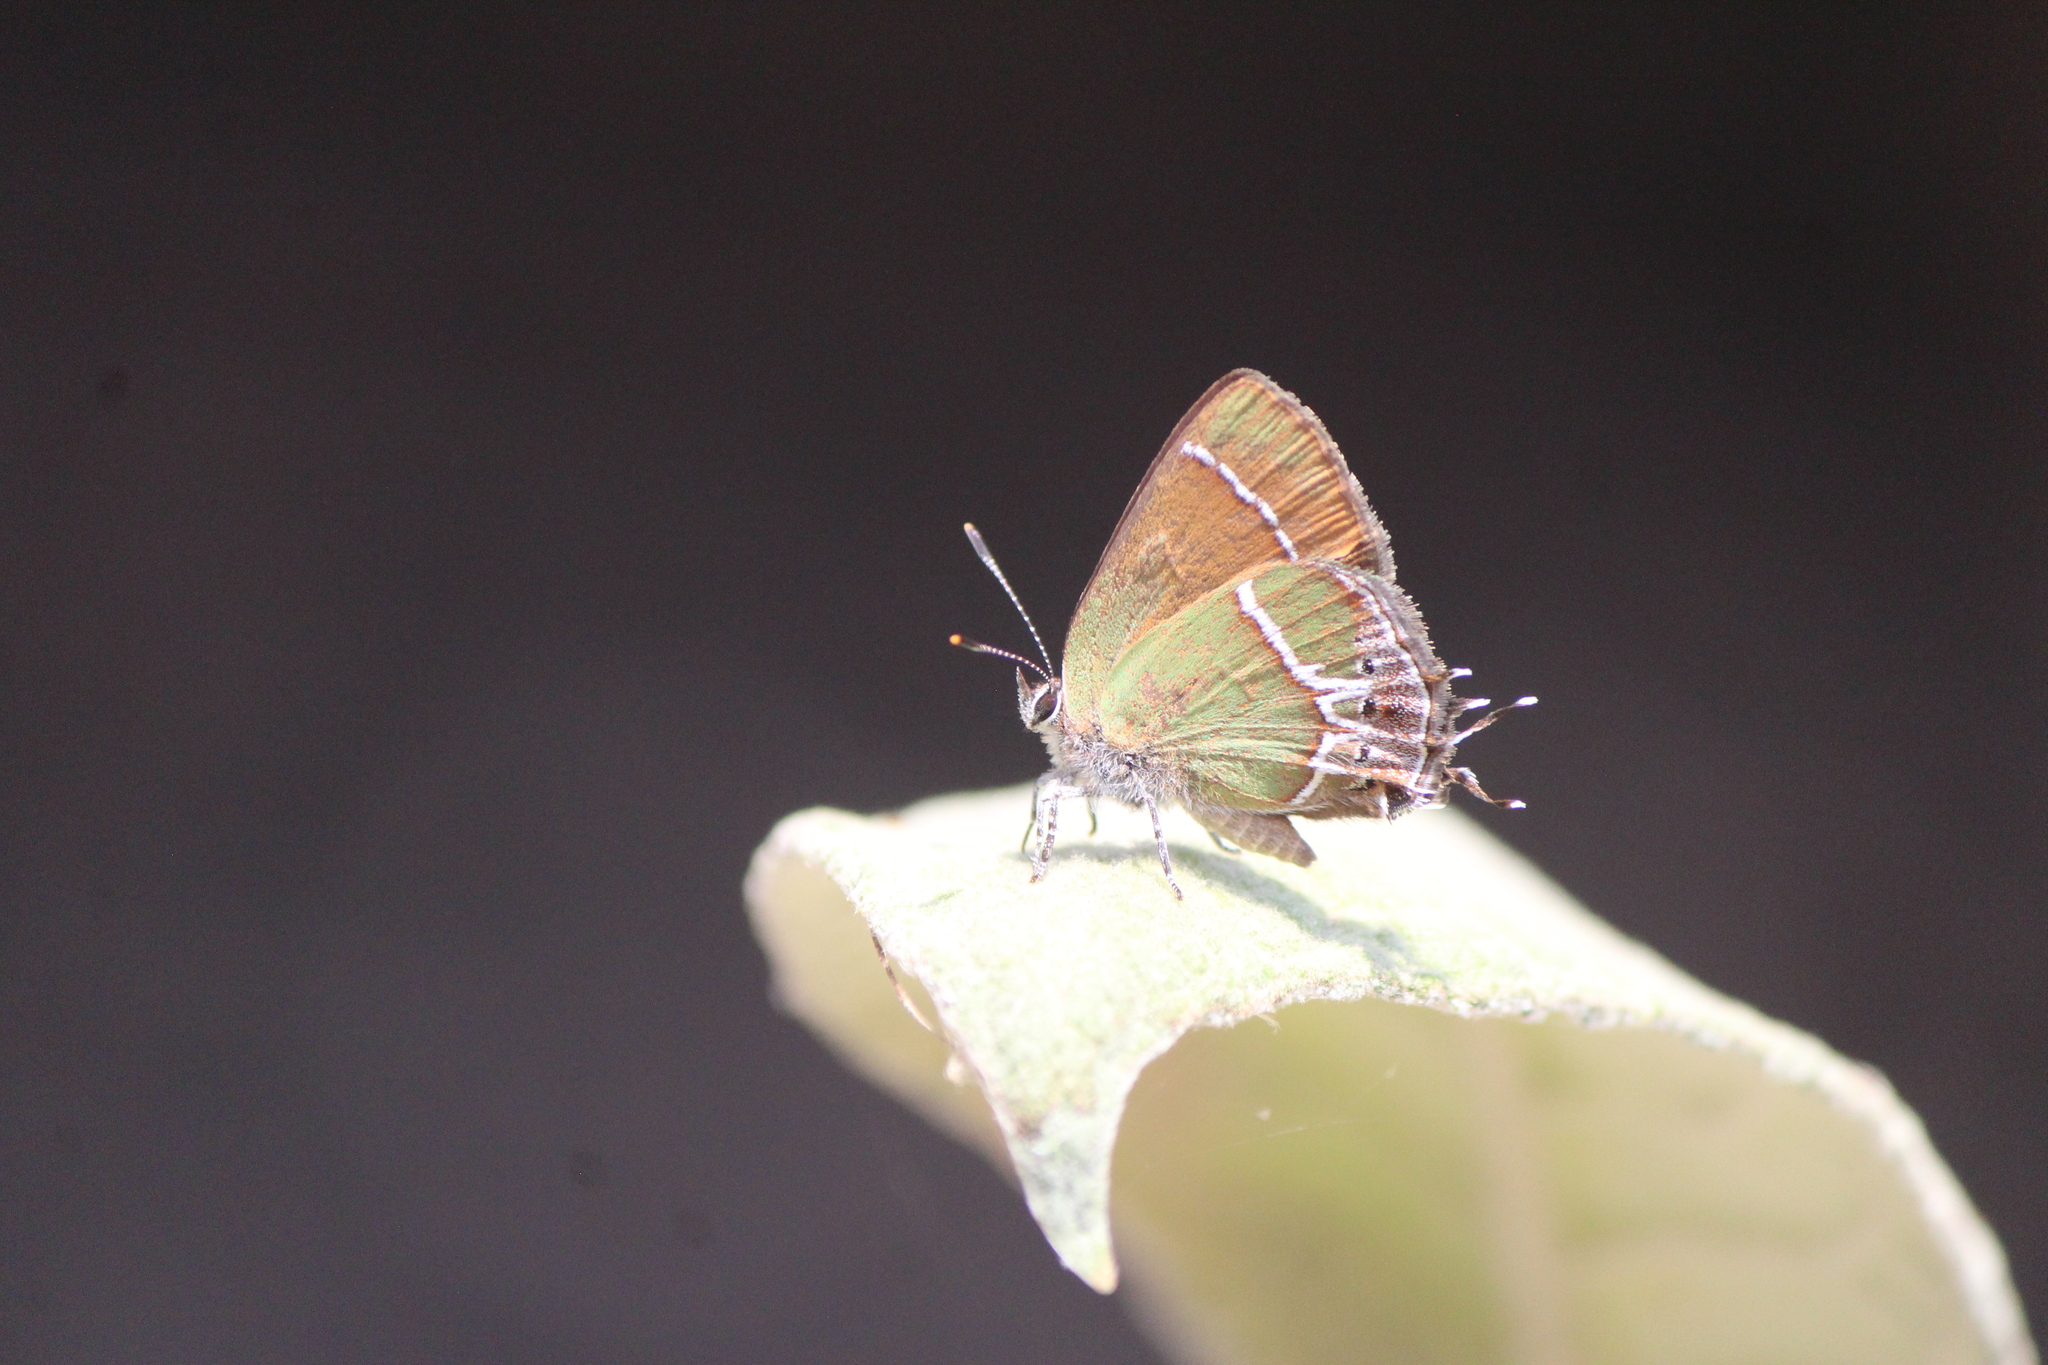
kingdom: Animalia
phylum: Arthropoda
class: Insecta
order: Lepidoptera
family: Lycaenidae
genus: Xamia
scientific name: Xamia xami
